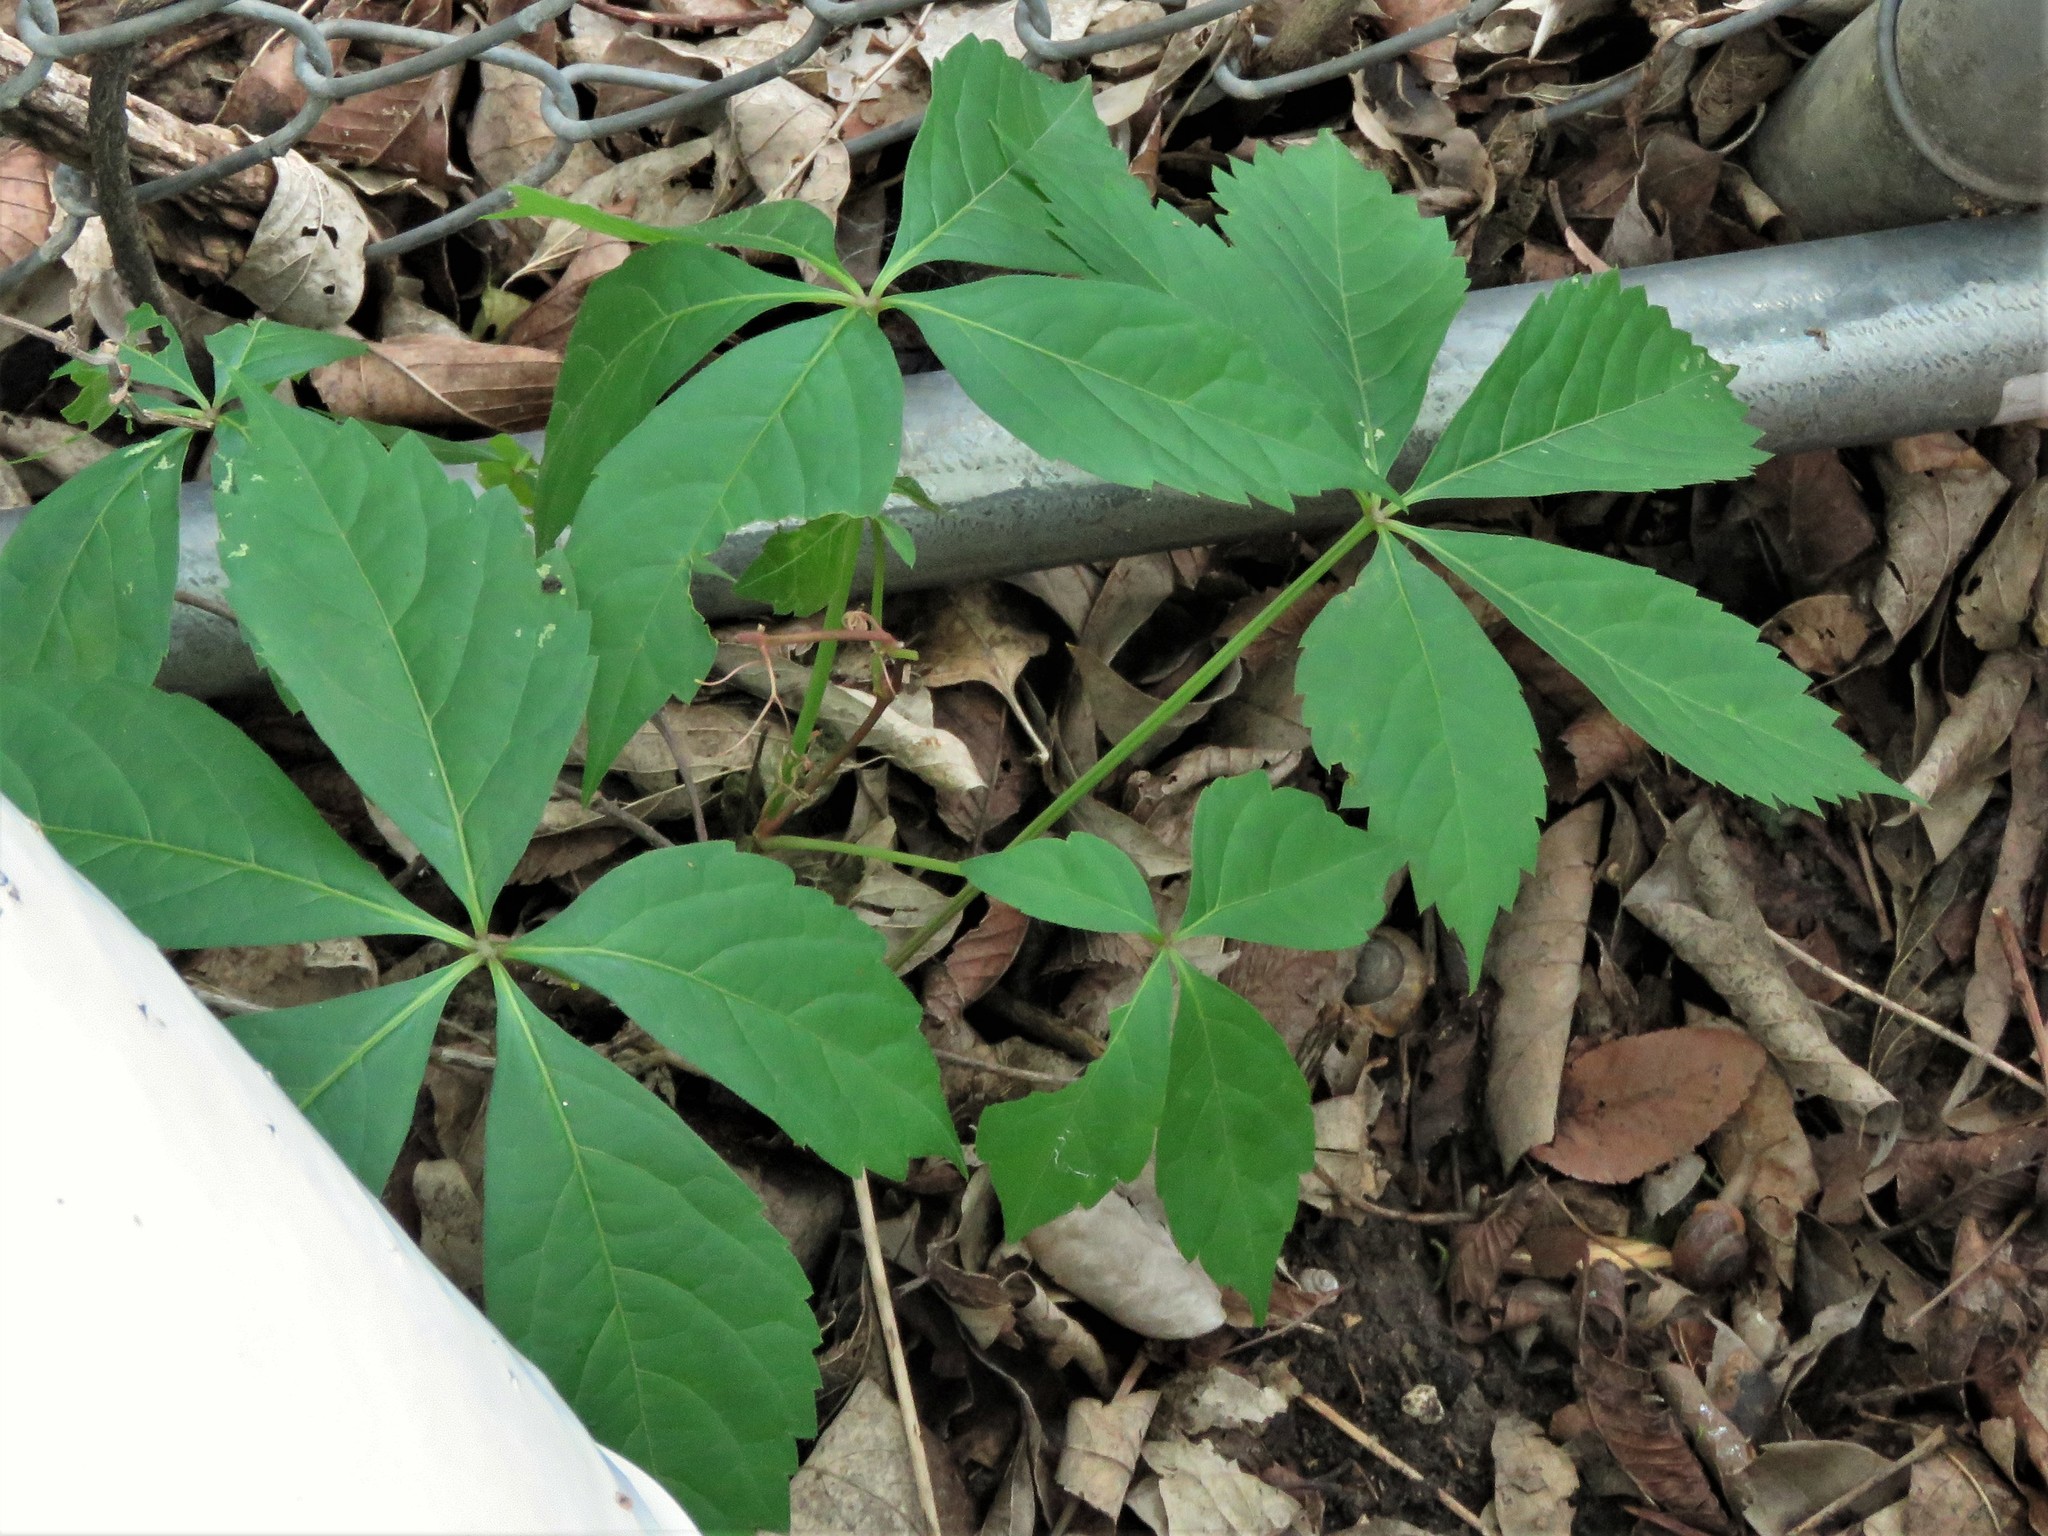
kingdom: Plantae
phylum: Tracheophyta
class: Magnoliopsida
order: Vitales
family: Vitaceae
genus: Parthenocissus
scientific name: Parthenocissus quinquefolia
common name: Virginia-creeper
